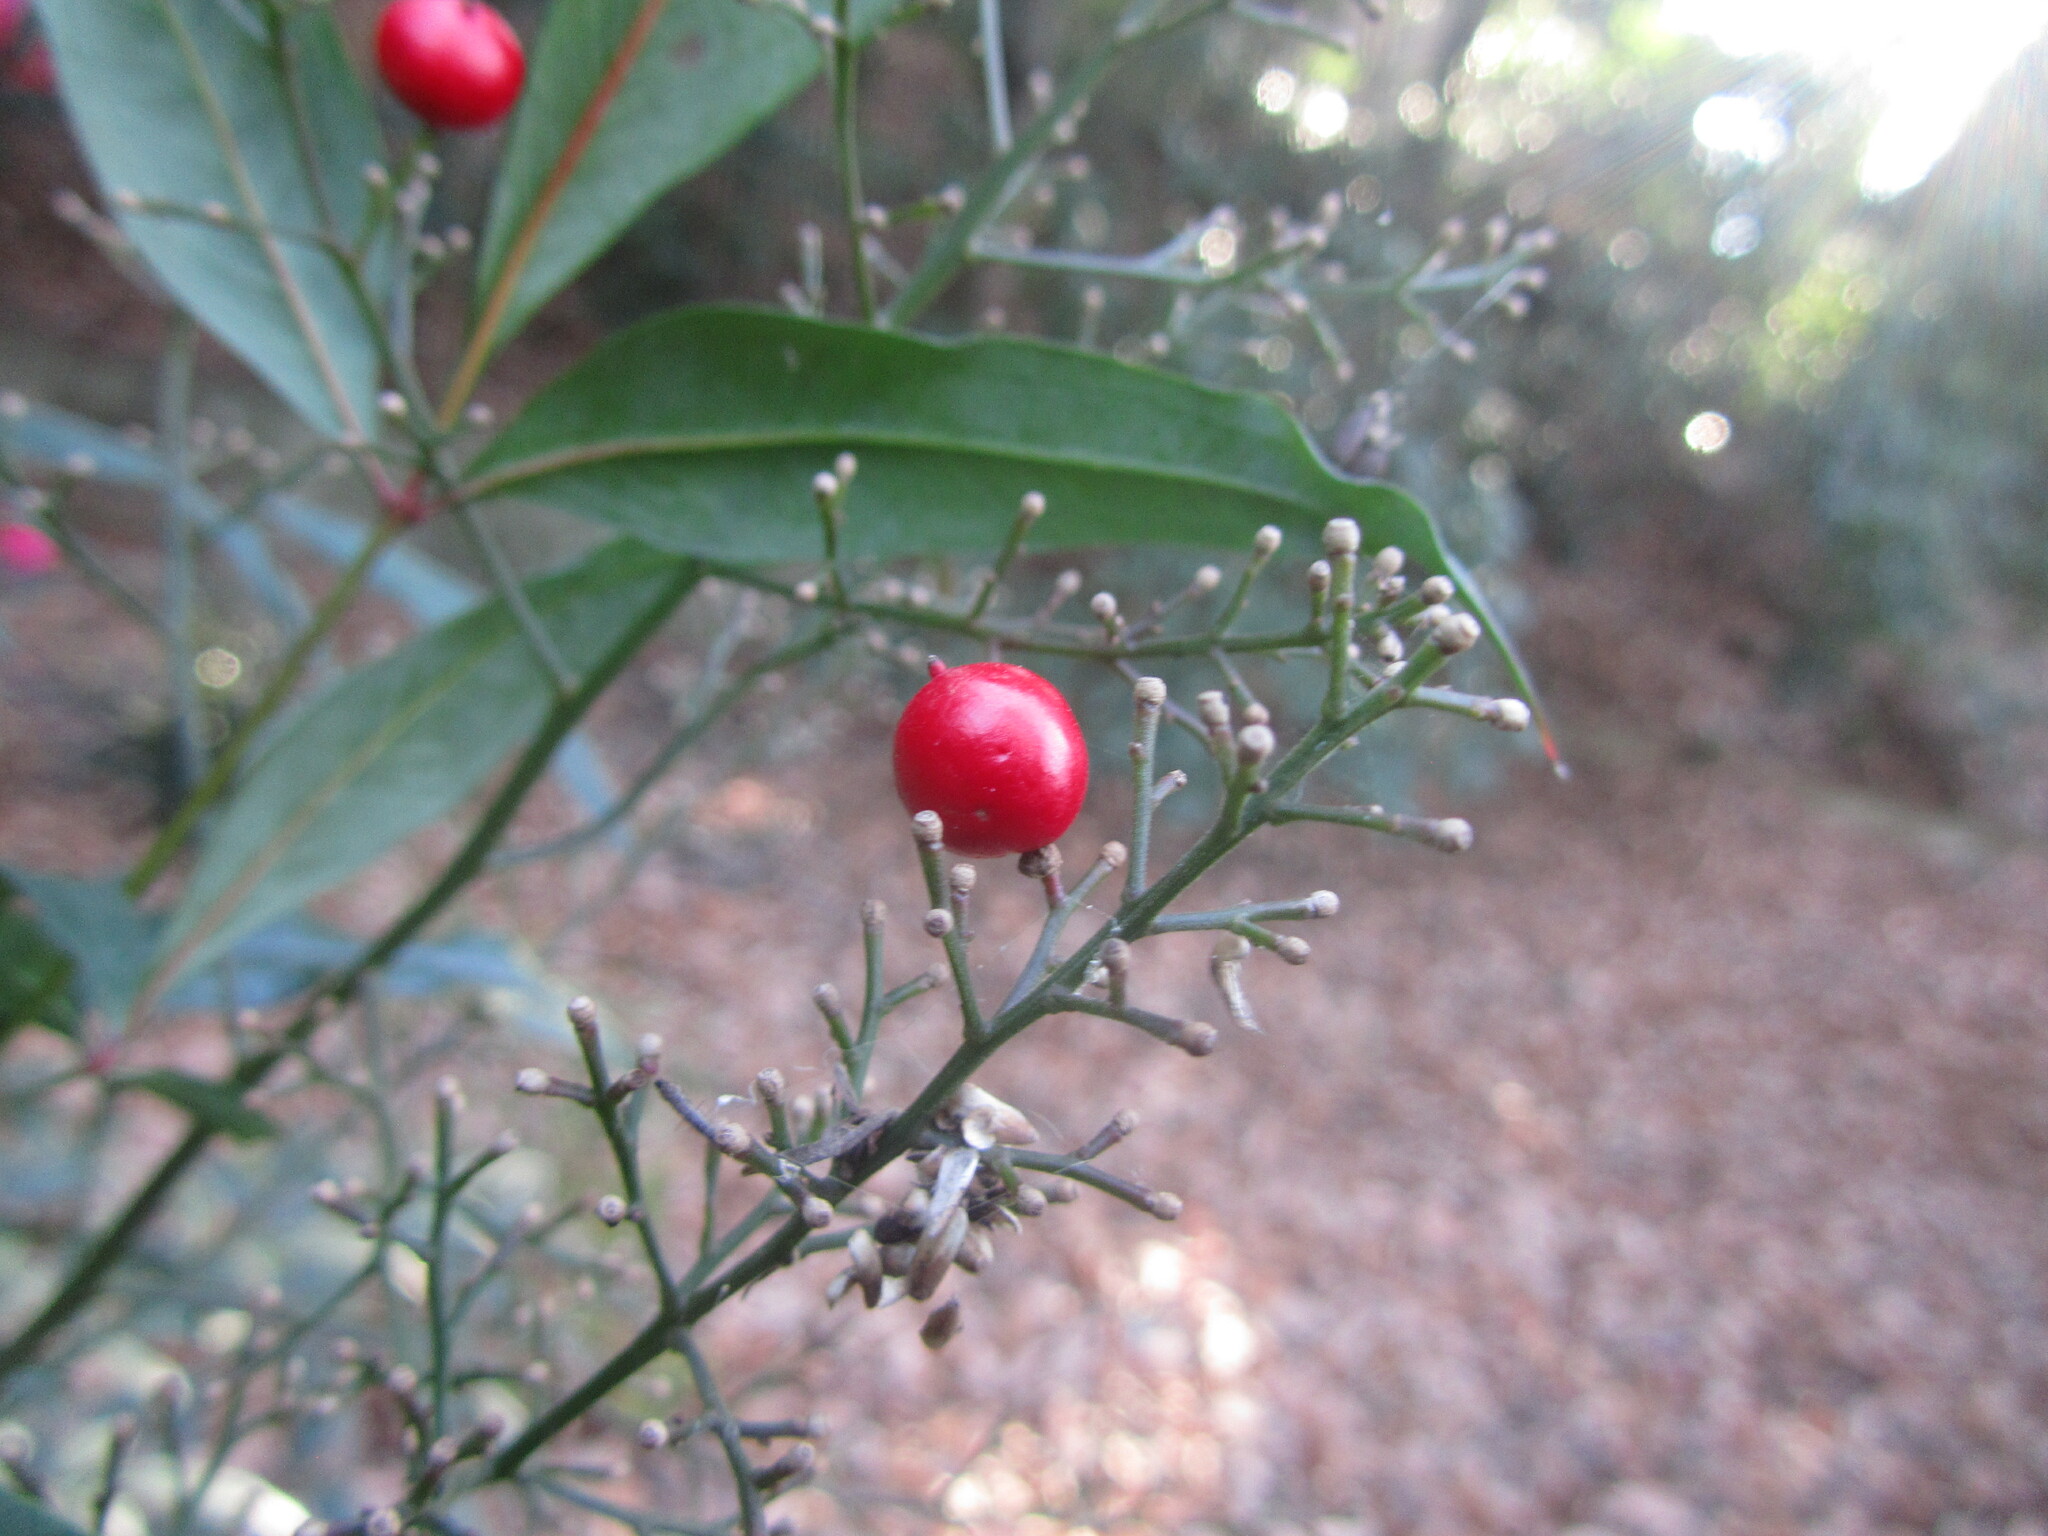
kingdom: Plantae
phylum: Tracheophyta
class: Magnoliopsida
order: Ranunculales
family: Berberidaceae
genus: Nandina
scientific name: Nandina domestica
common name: Sacred bamboo
